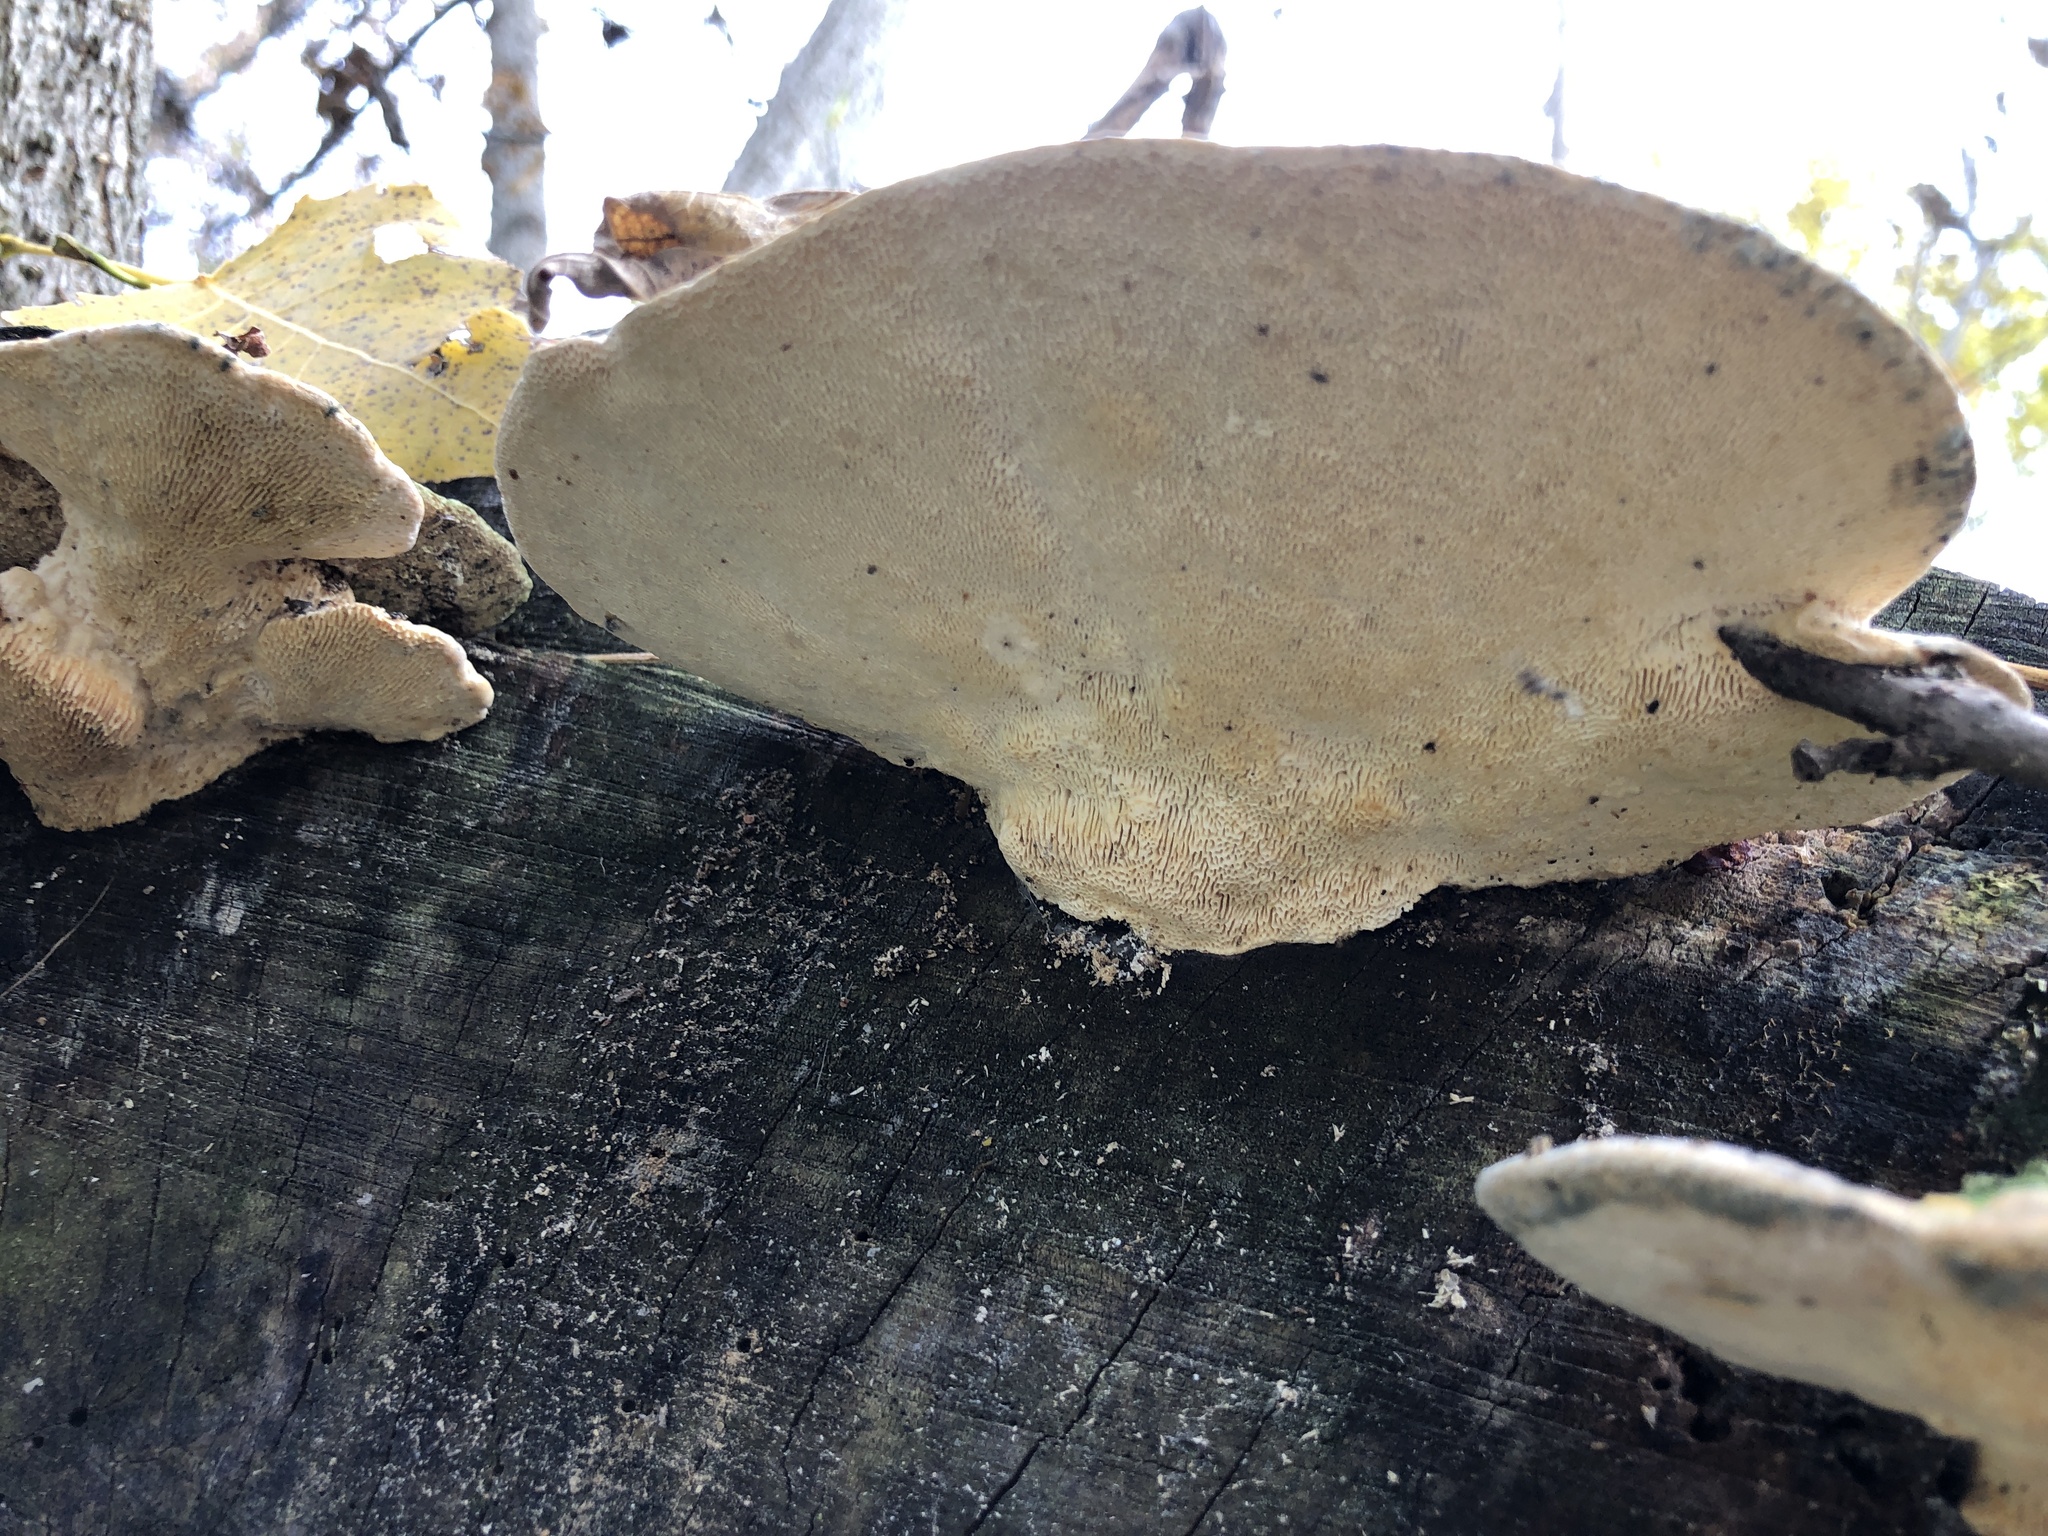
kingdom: Fungi
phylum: Basidiomycota
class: Agaricomycetes
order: Polyporales
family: Polyporaceae
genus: Trametes
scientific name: Trametes gibbosa
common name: Lumpy bracket
